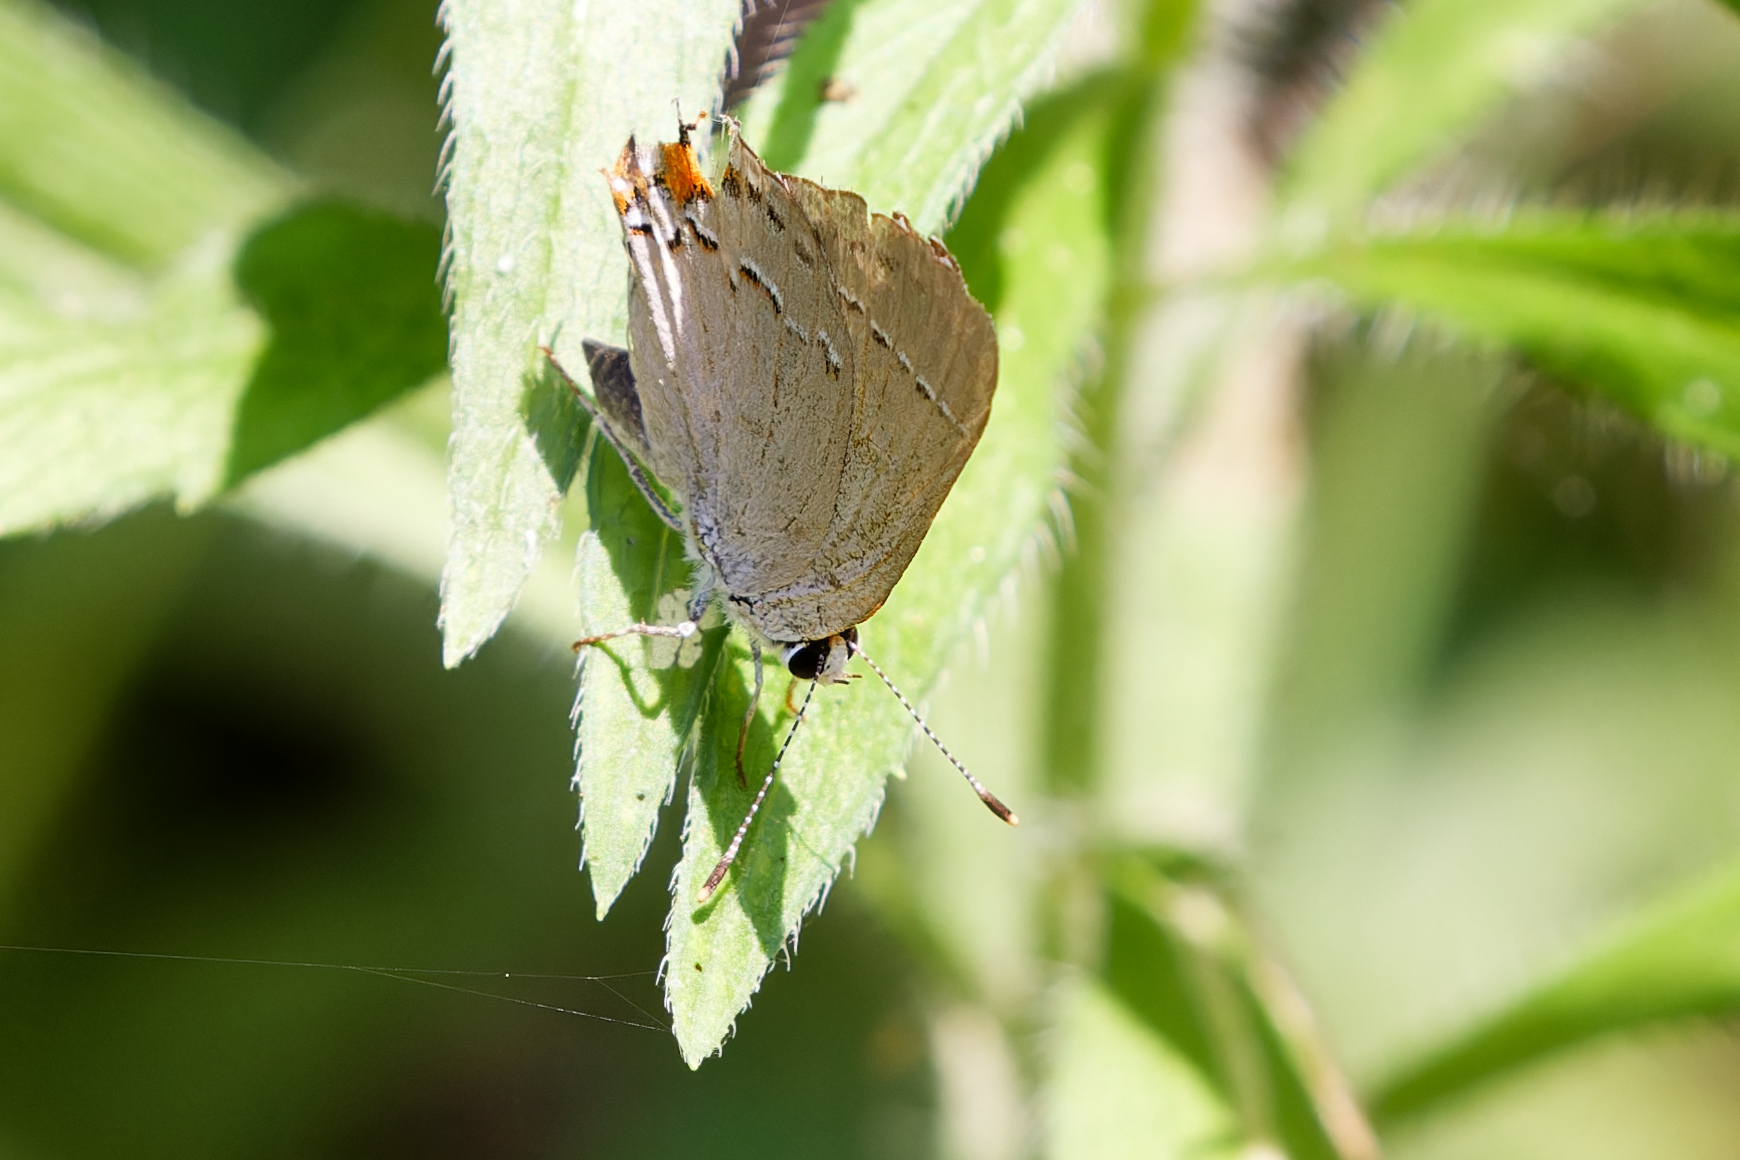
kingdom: Animalia
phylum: Arthropoda
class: Insecta
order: Lepidoptera
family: Lycaenidae
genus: Strymon
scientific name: Strymon melinus
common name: Gray hairstreak
